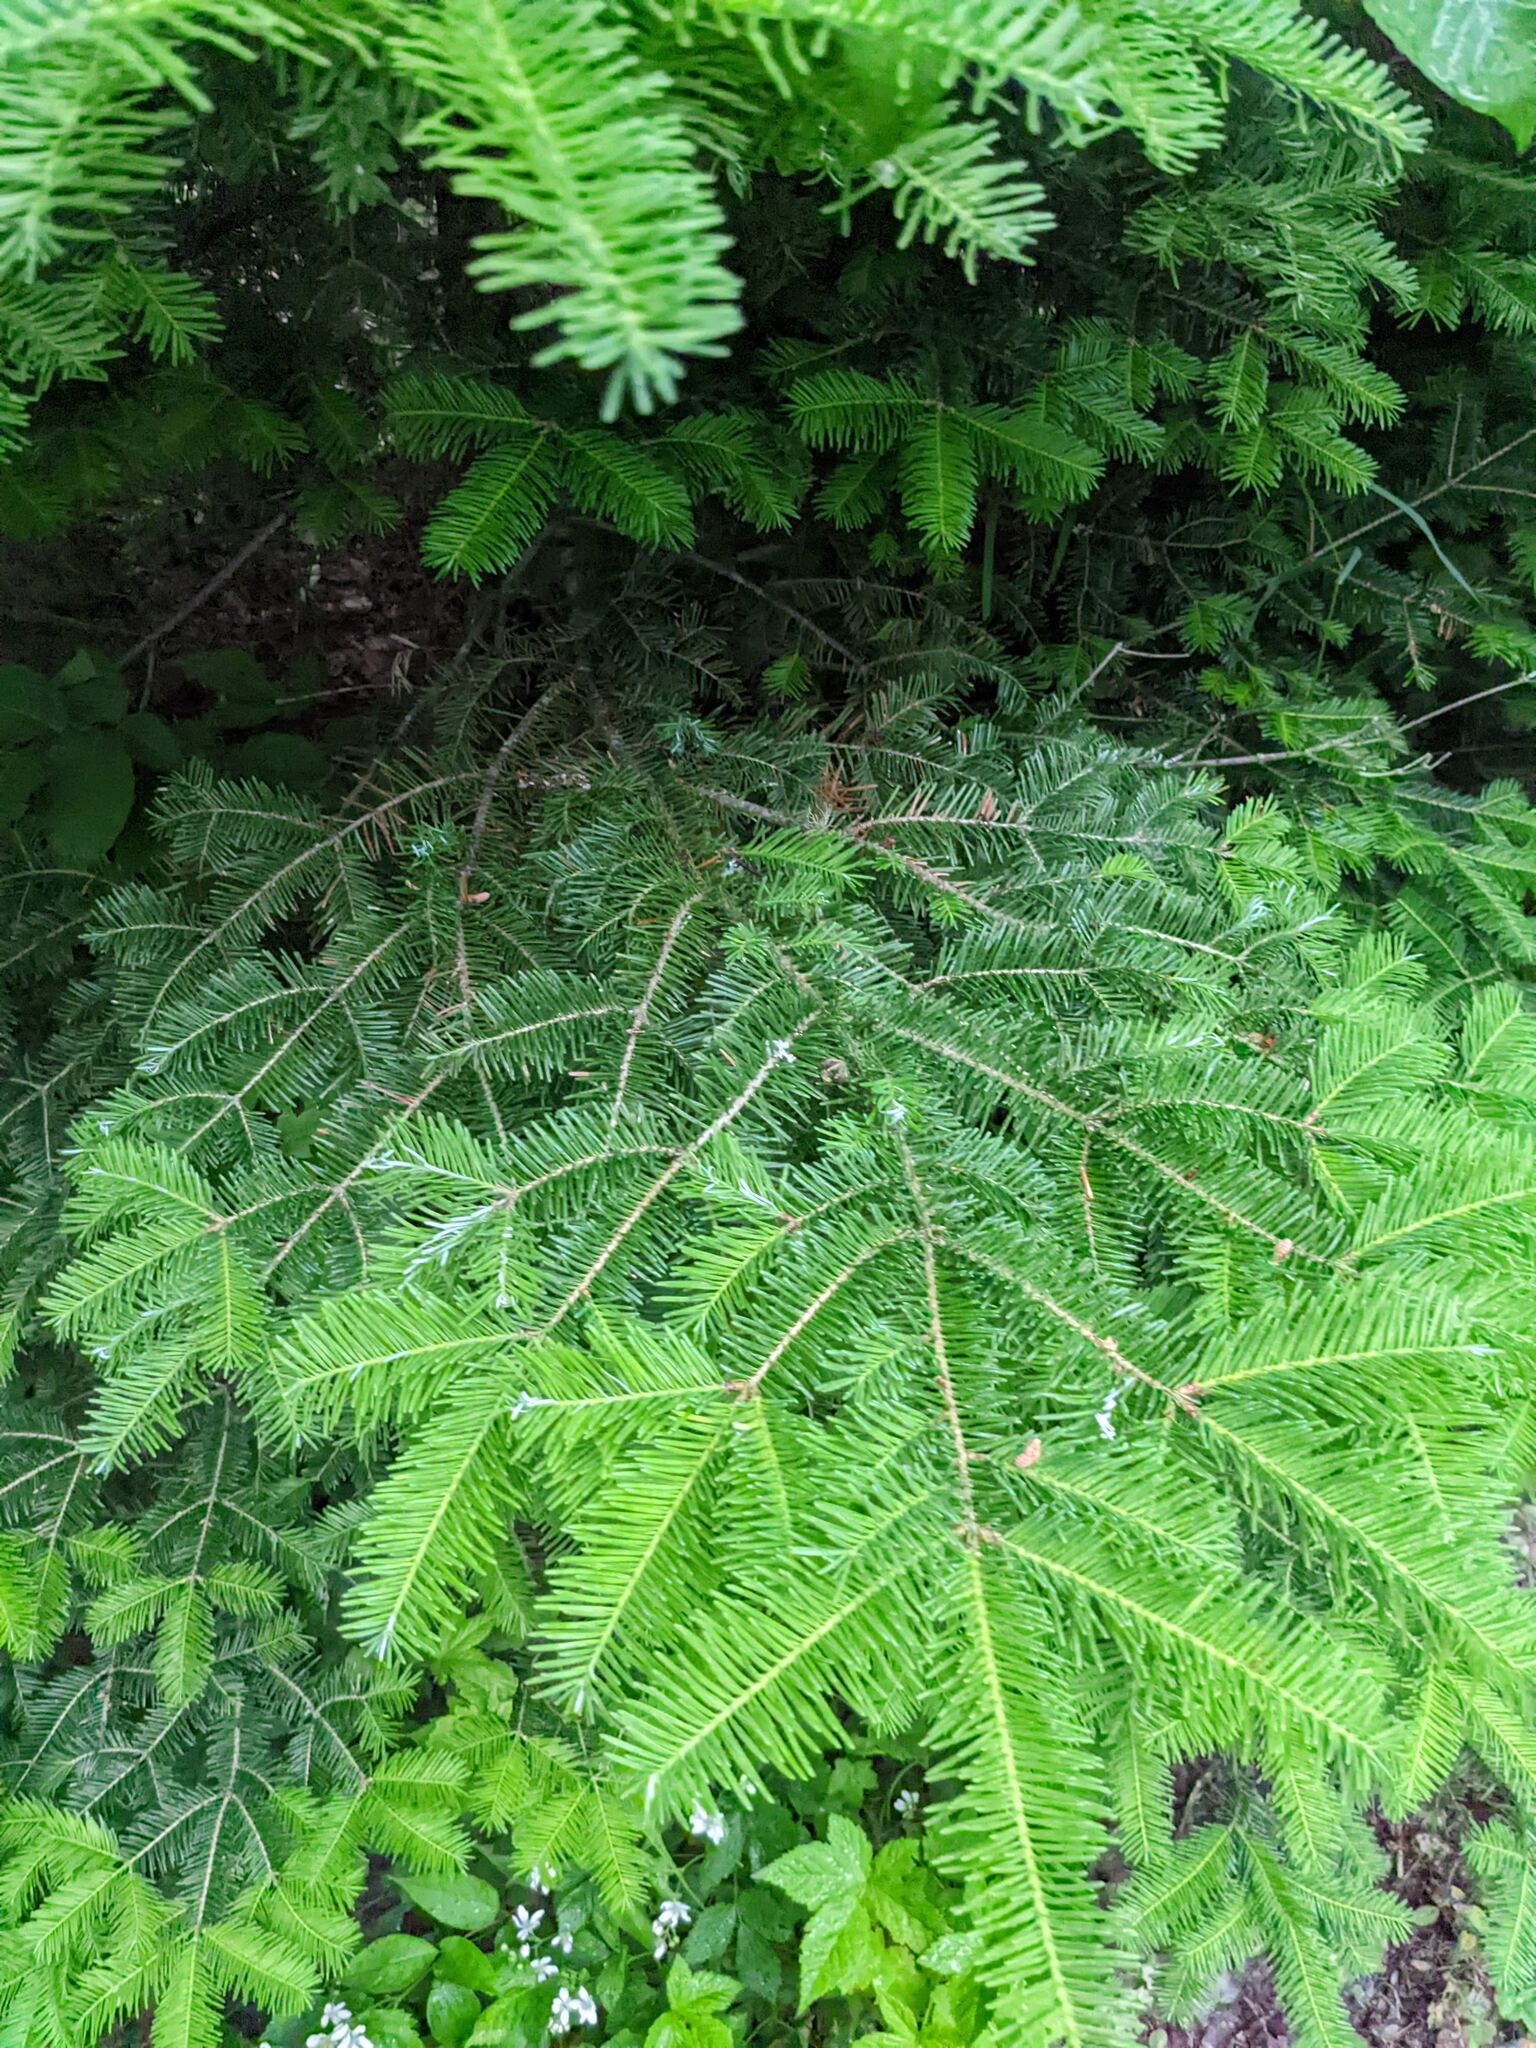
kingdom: Plantae
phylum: Tracheophyta
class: Pinopsida
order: Pinales
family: Pinaceae
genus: Abies
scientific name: Abies balsamea
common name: Balsam fir
